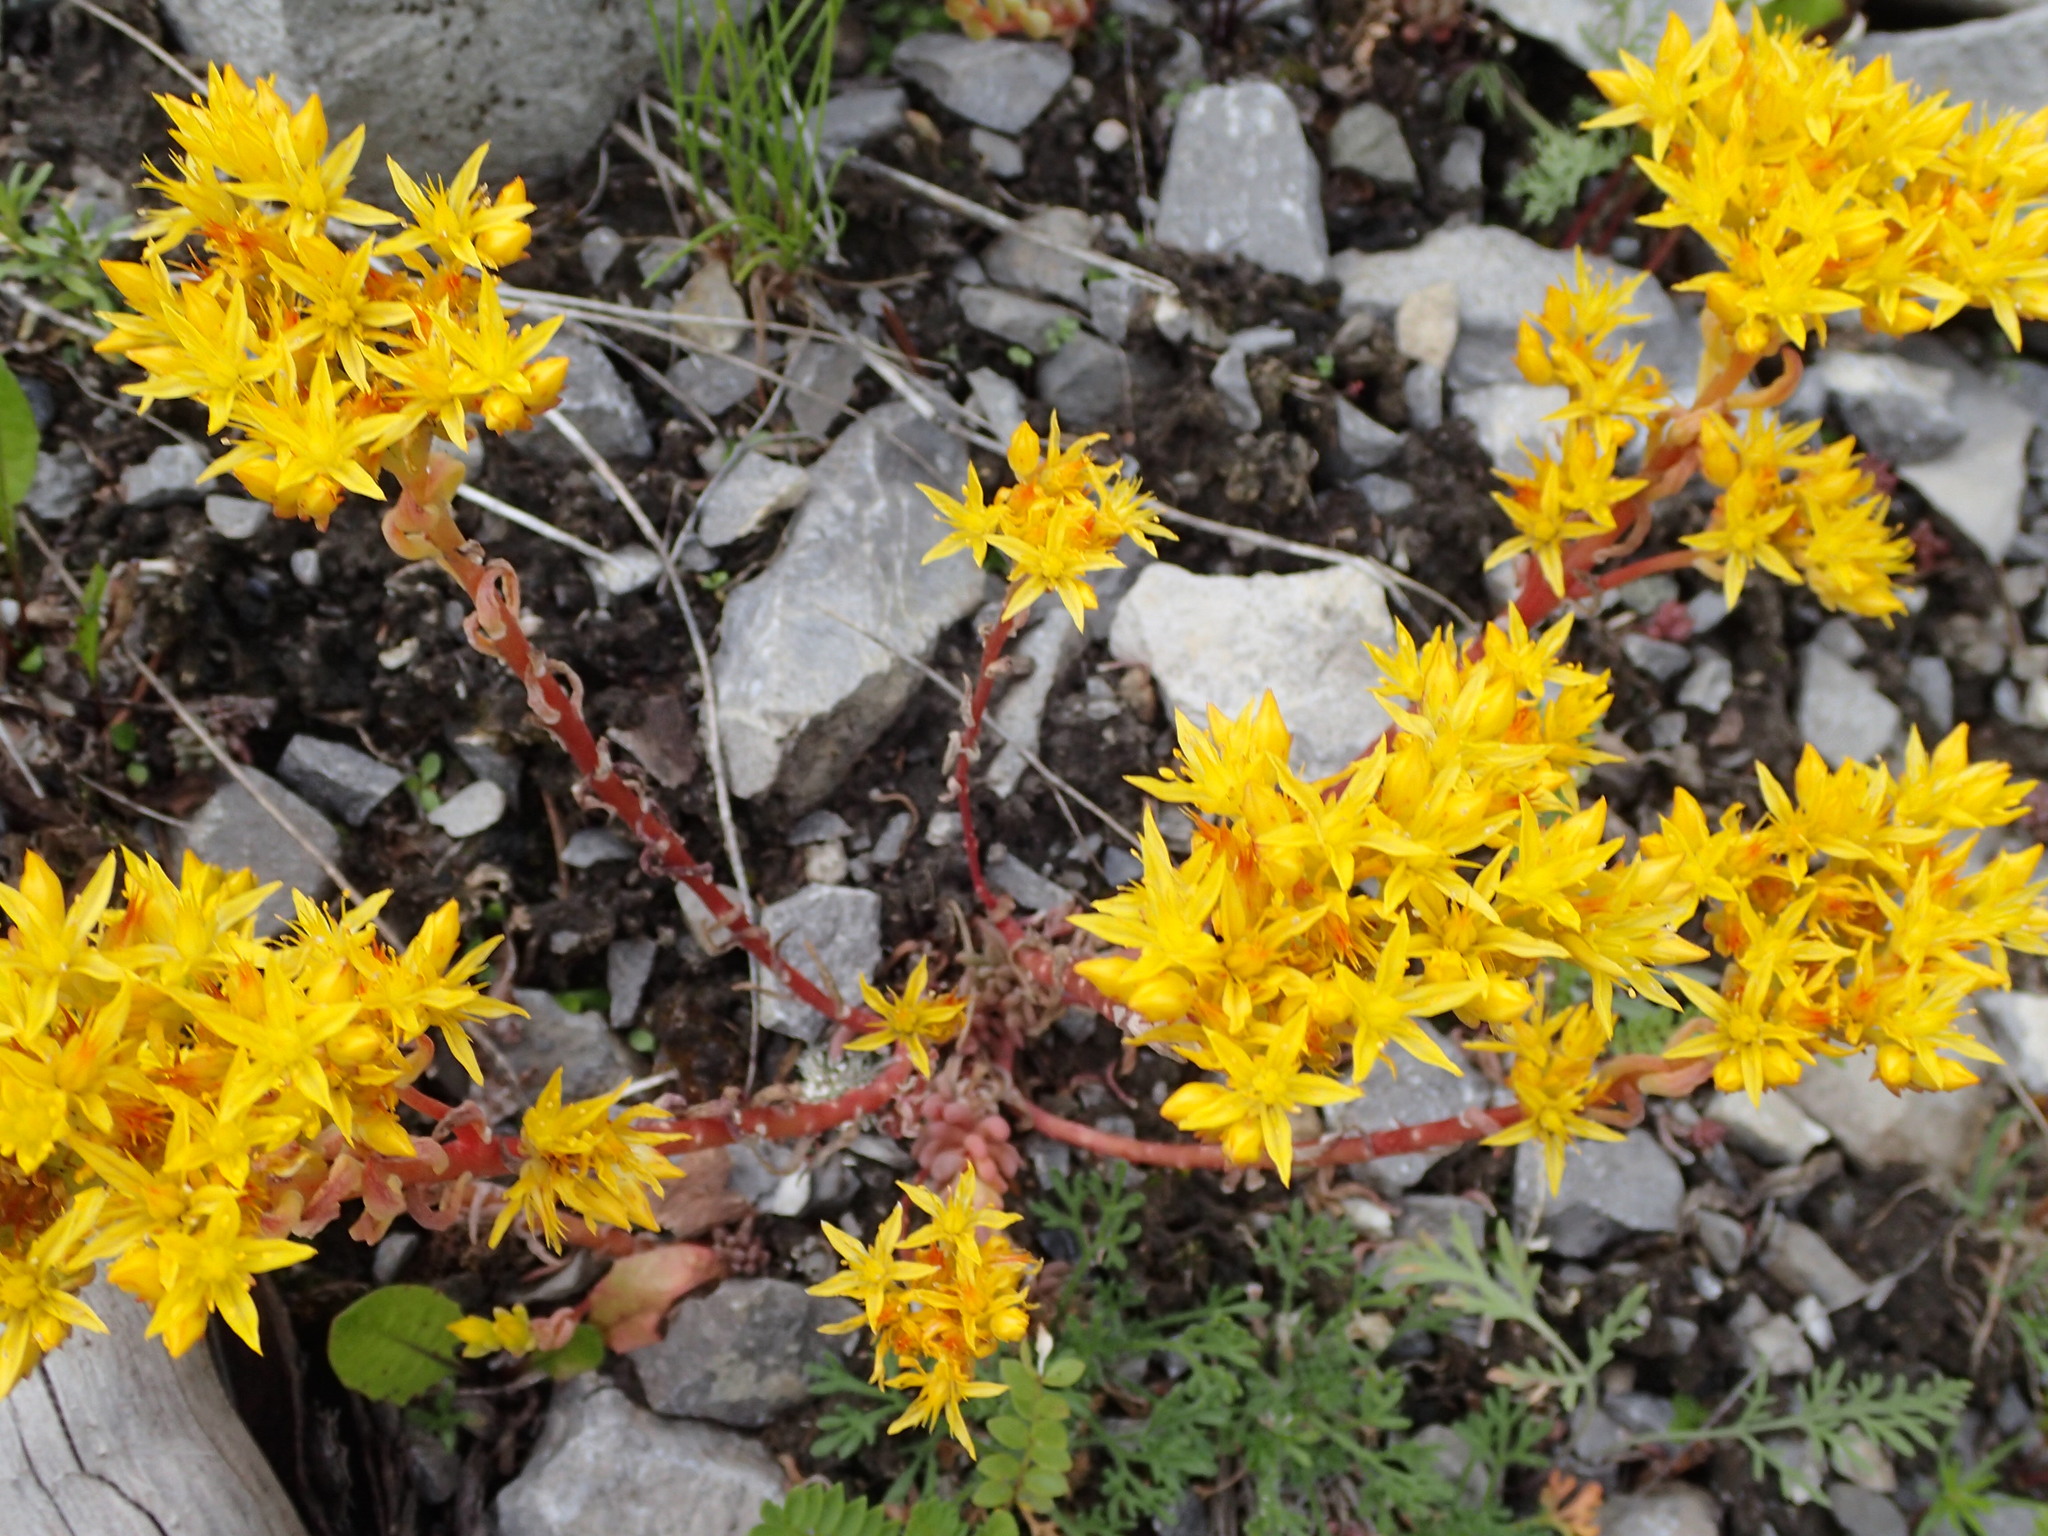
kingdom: Plantae
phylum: Tracheophyta
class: Magnoliopsida
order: Saxifragales
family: Crassulaceae
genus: Sedum
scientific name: Sedum lanceolatum
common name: Common stonecrop
